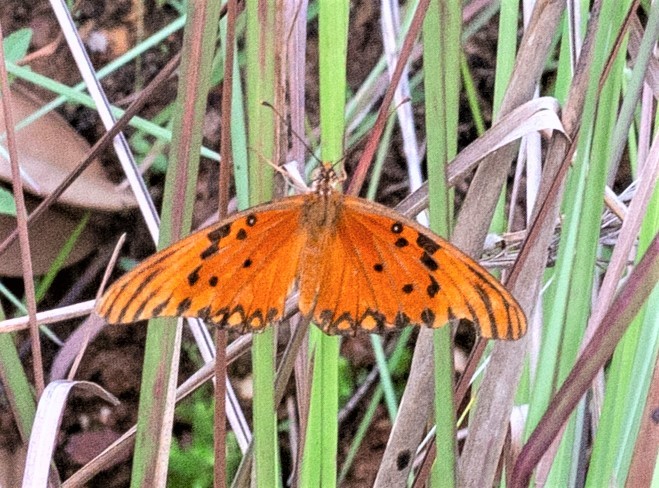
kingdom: Animalia
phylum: Arthropoda
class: Insecta
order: Lepidoptera
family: Nymphalidae
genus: Dione
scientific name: Dione vanillae
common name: Gulf fritillary
